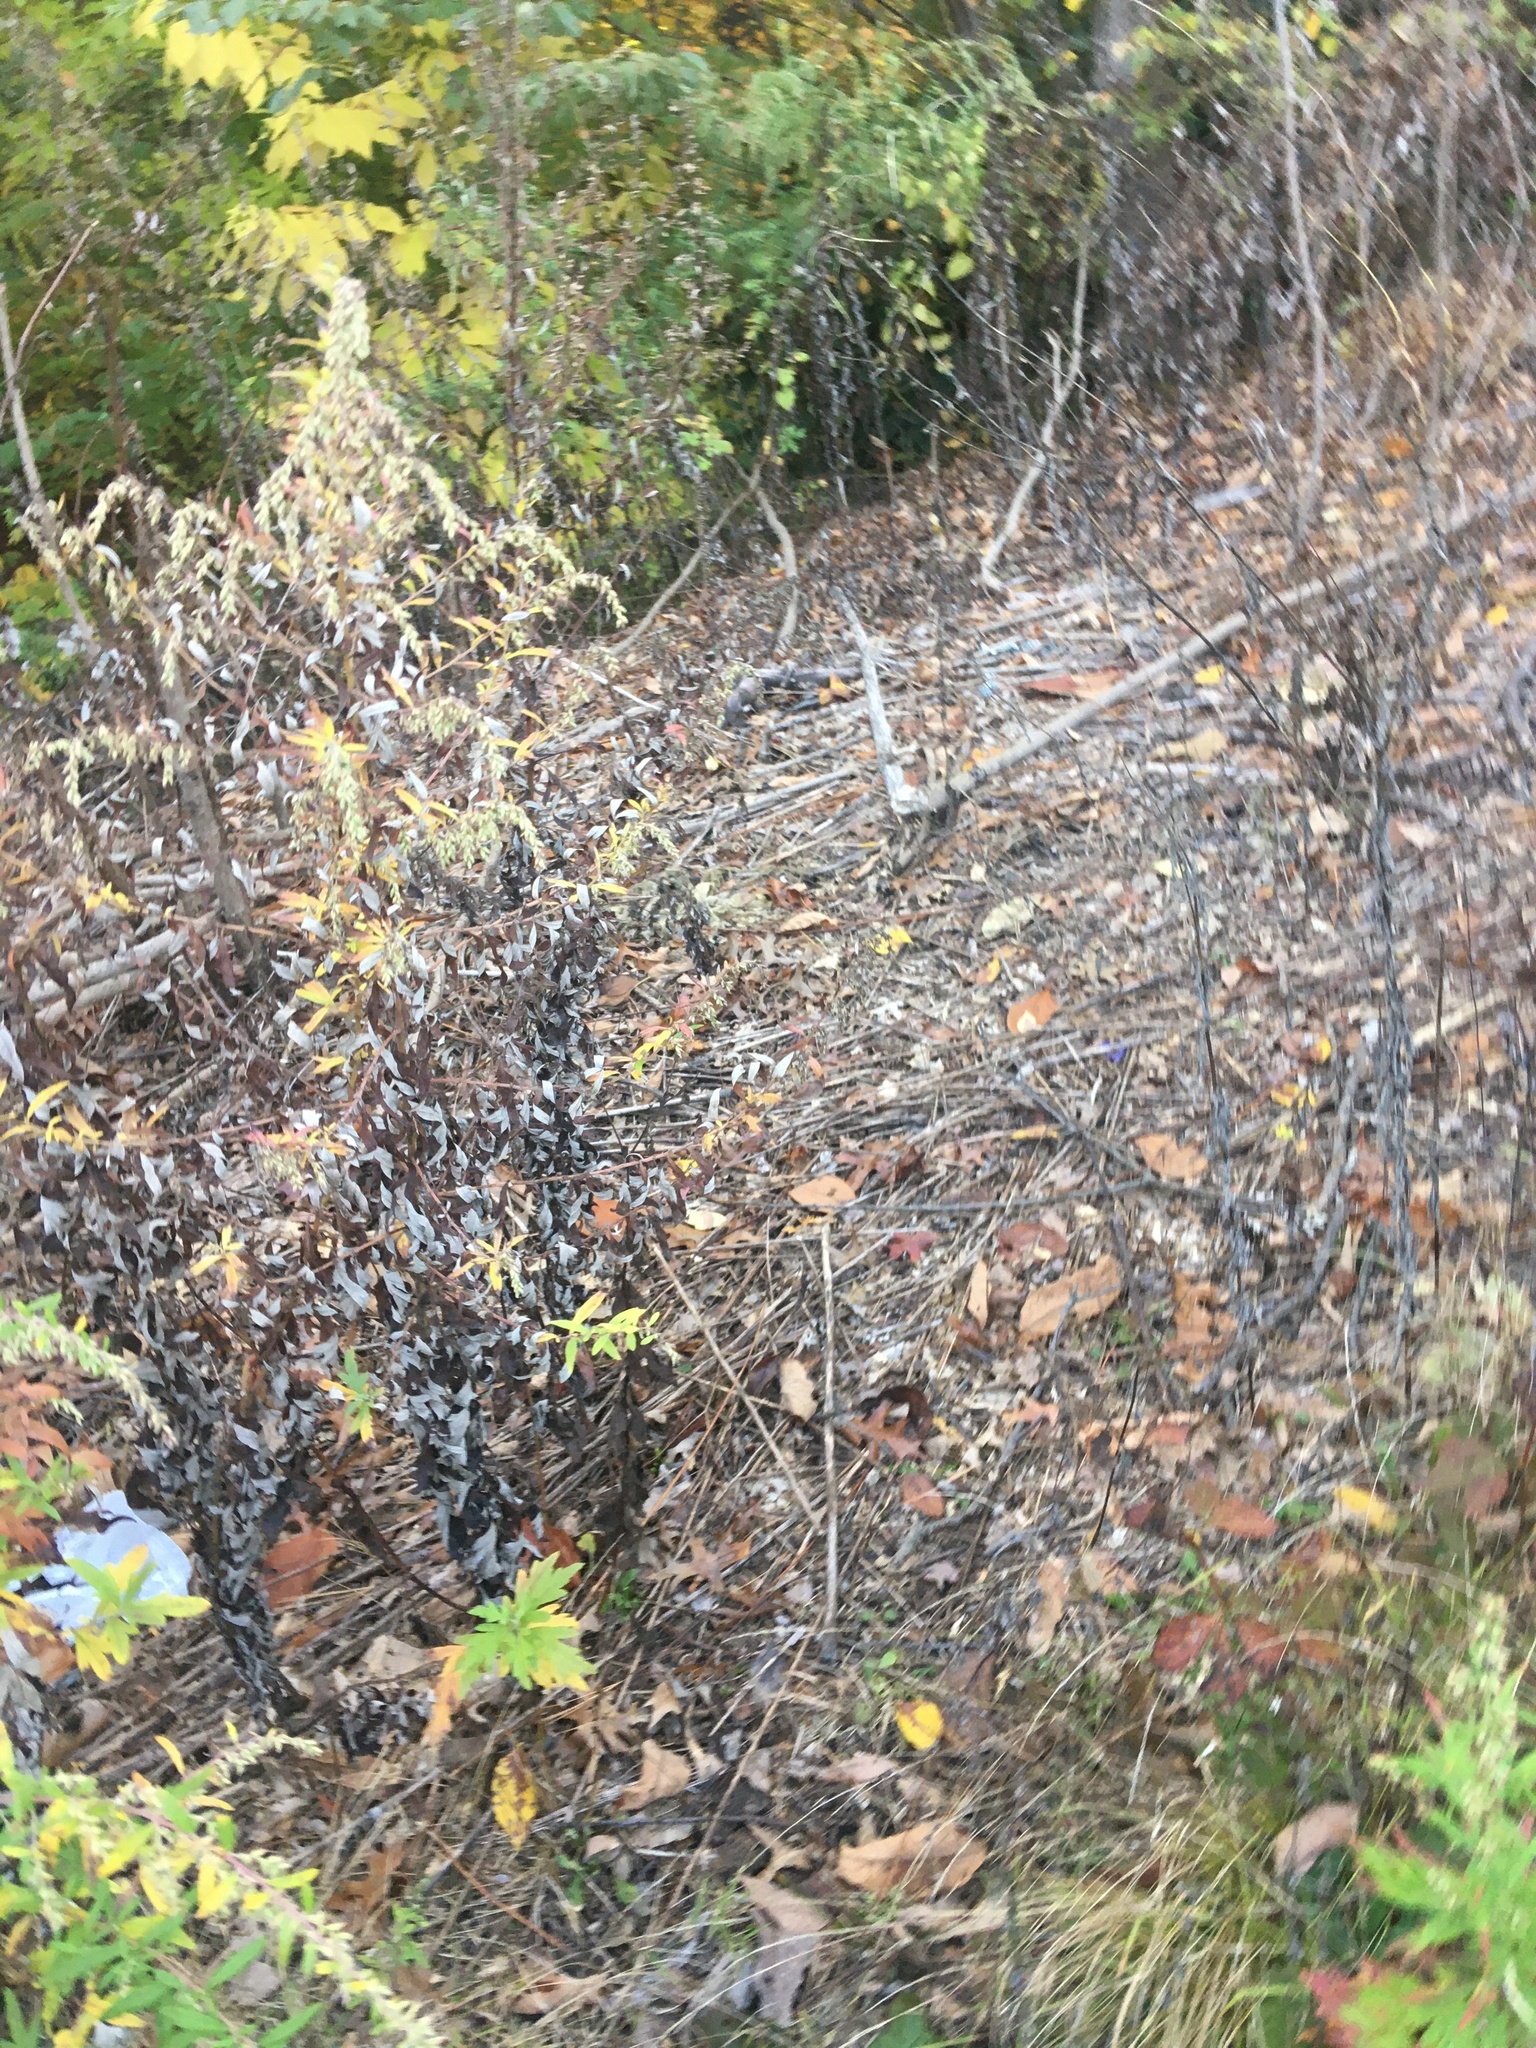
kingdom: Plantae
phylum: Tracheophyta
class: Magnoliopsida
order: Asterales
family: Asteraceae
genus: Artemisia
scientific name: Artemisia vulgaris
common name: Mugwort
